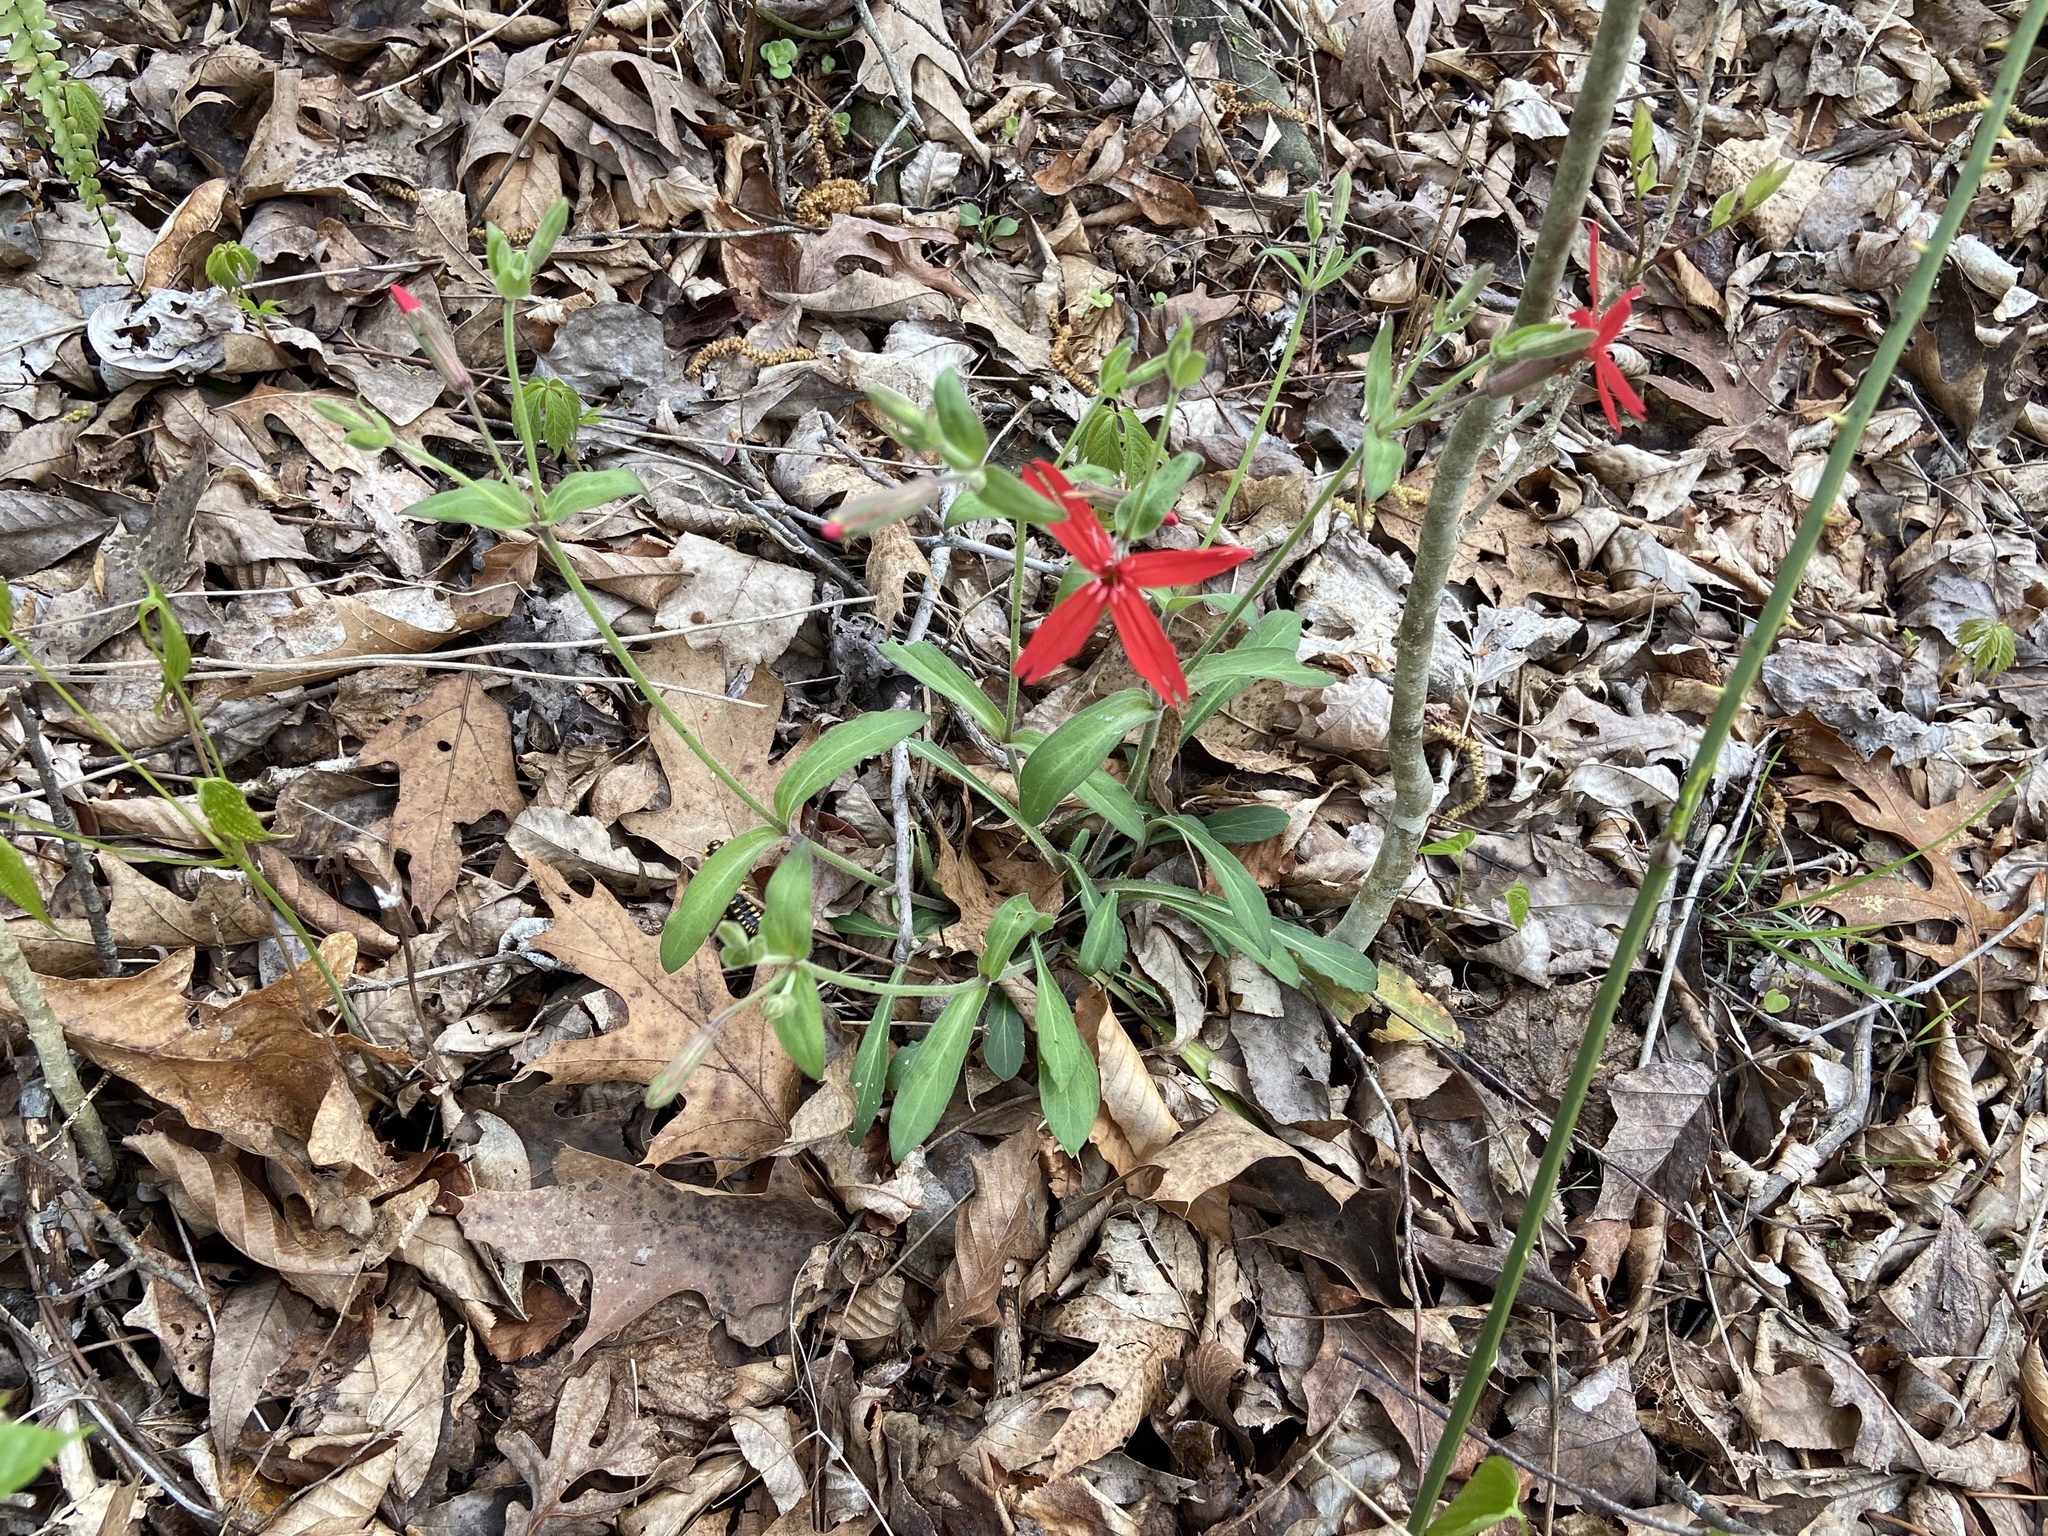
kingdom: Plantae
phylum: Tracheophyta
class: Magnoliopsida
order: Caryophyllales
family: Caryophyllaceae
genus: Silene
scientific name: Silene virginica
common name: Fire-pink
